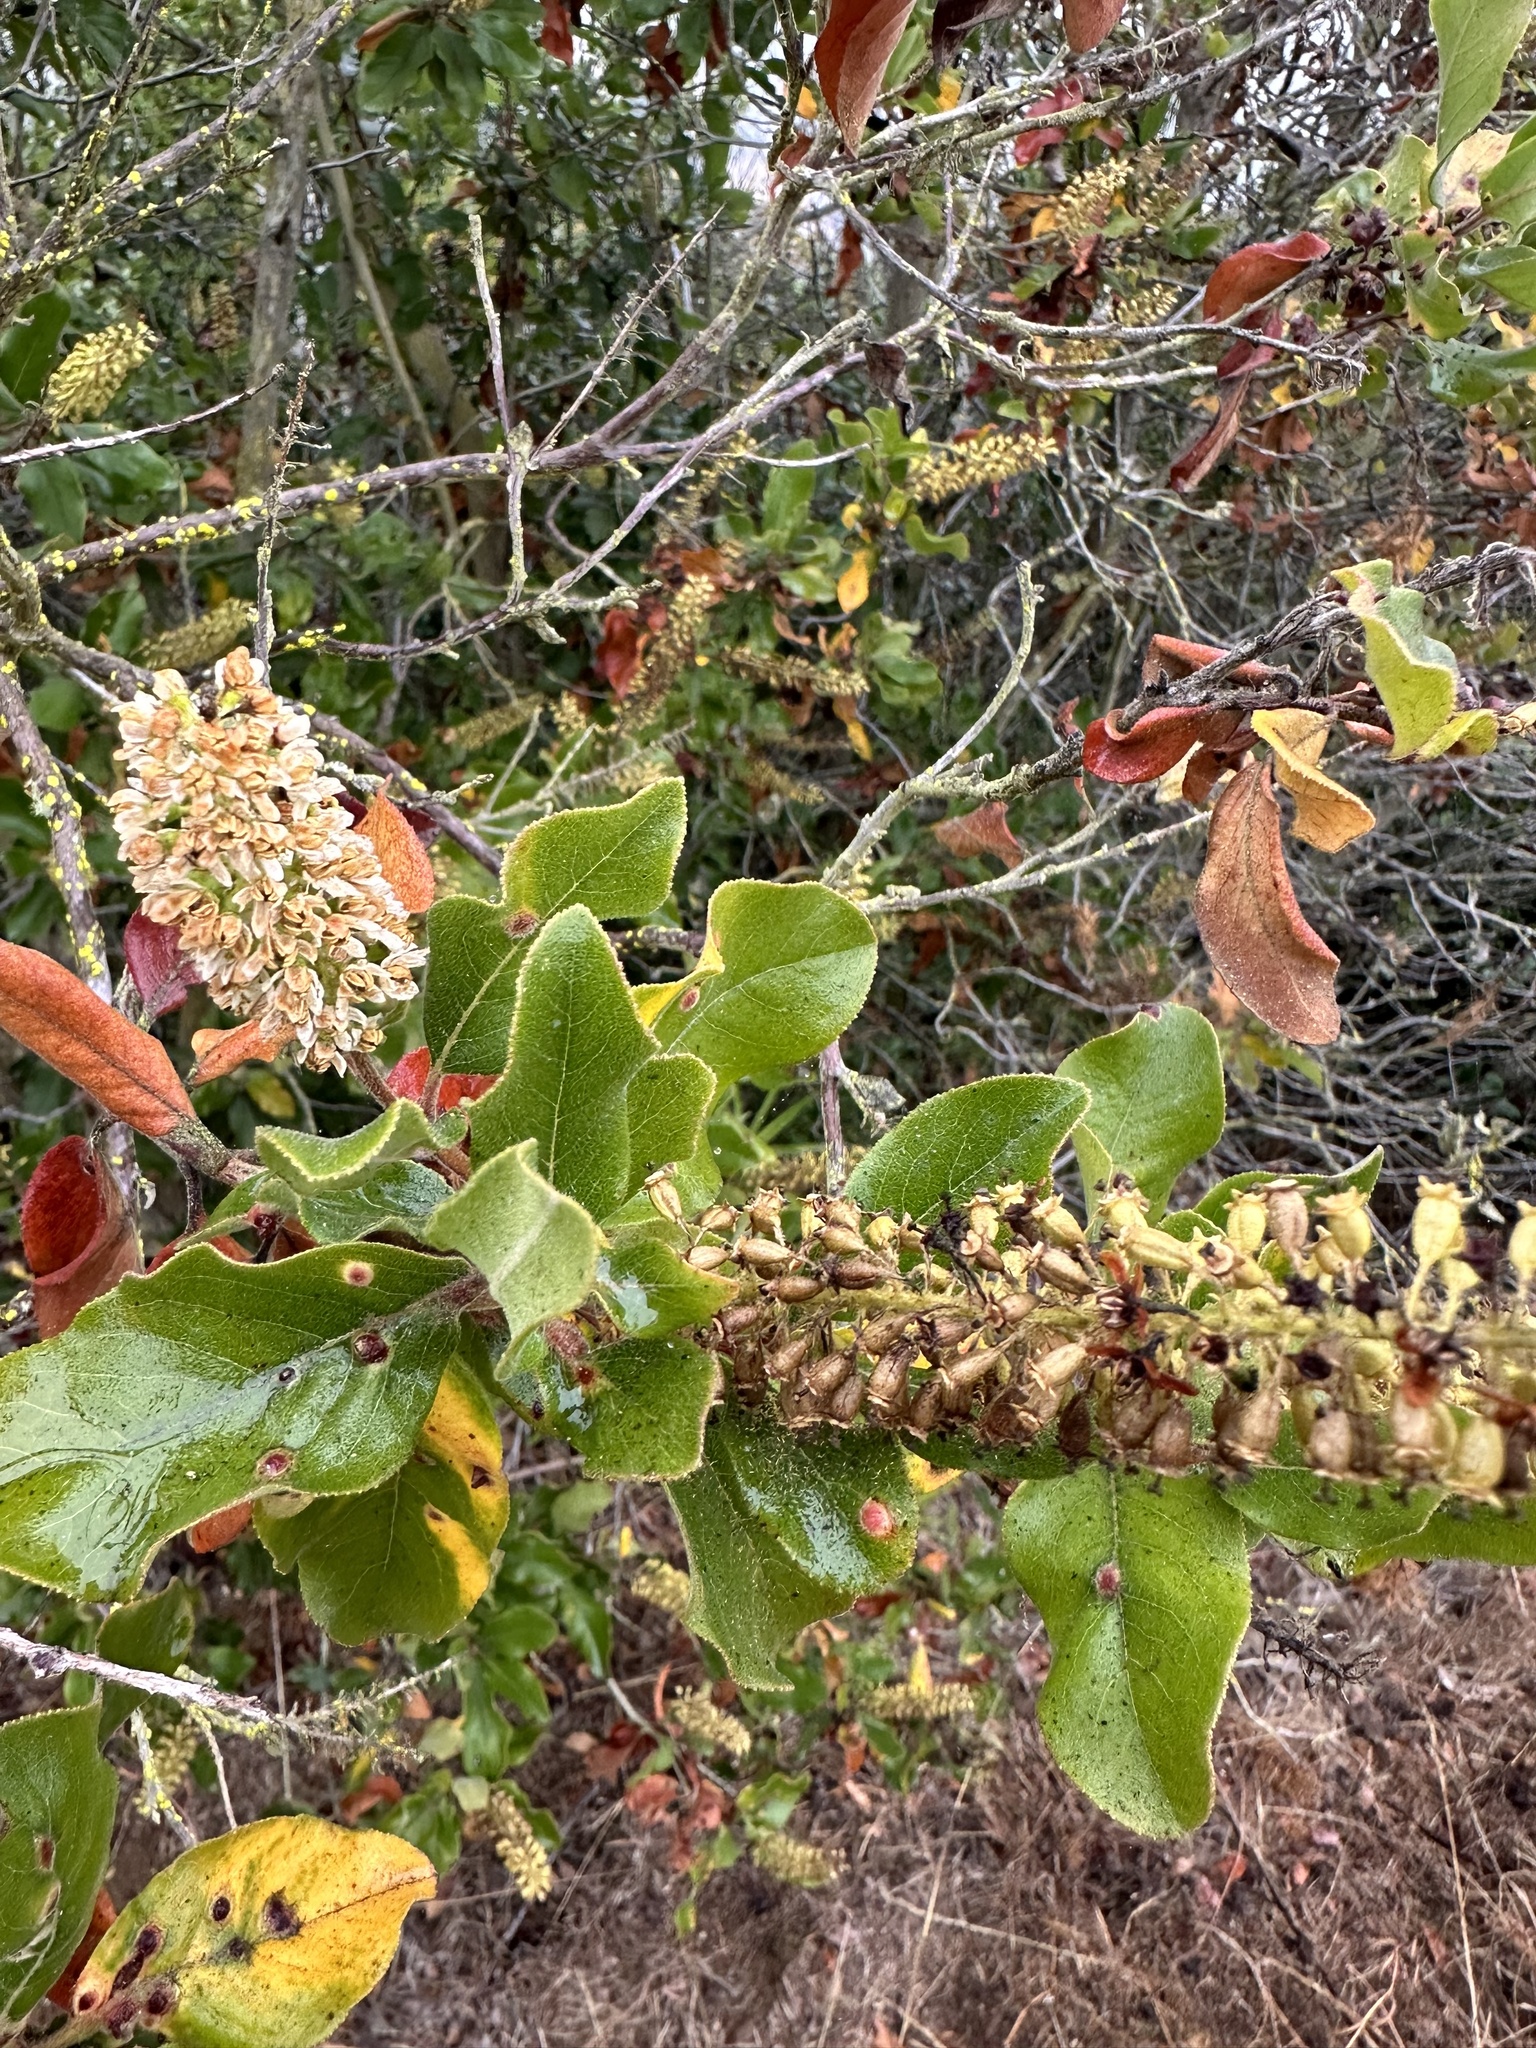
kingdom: Plantae
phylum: Tracheophyta
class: Magnoliopsida
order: Escalloniales
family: Escalloniaceae
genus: Escallonia
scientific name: Escallonia pulverulenta
